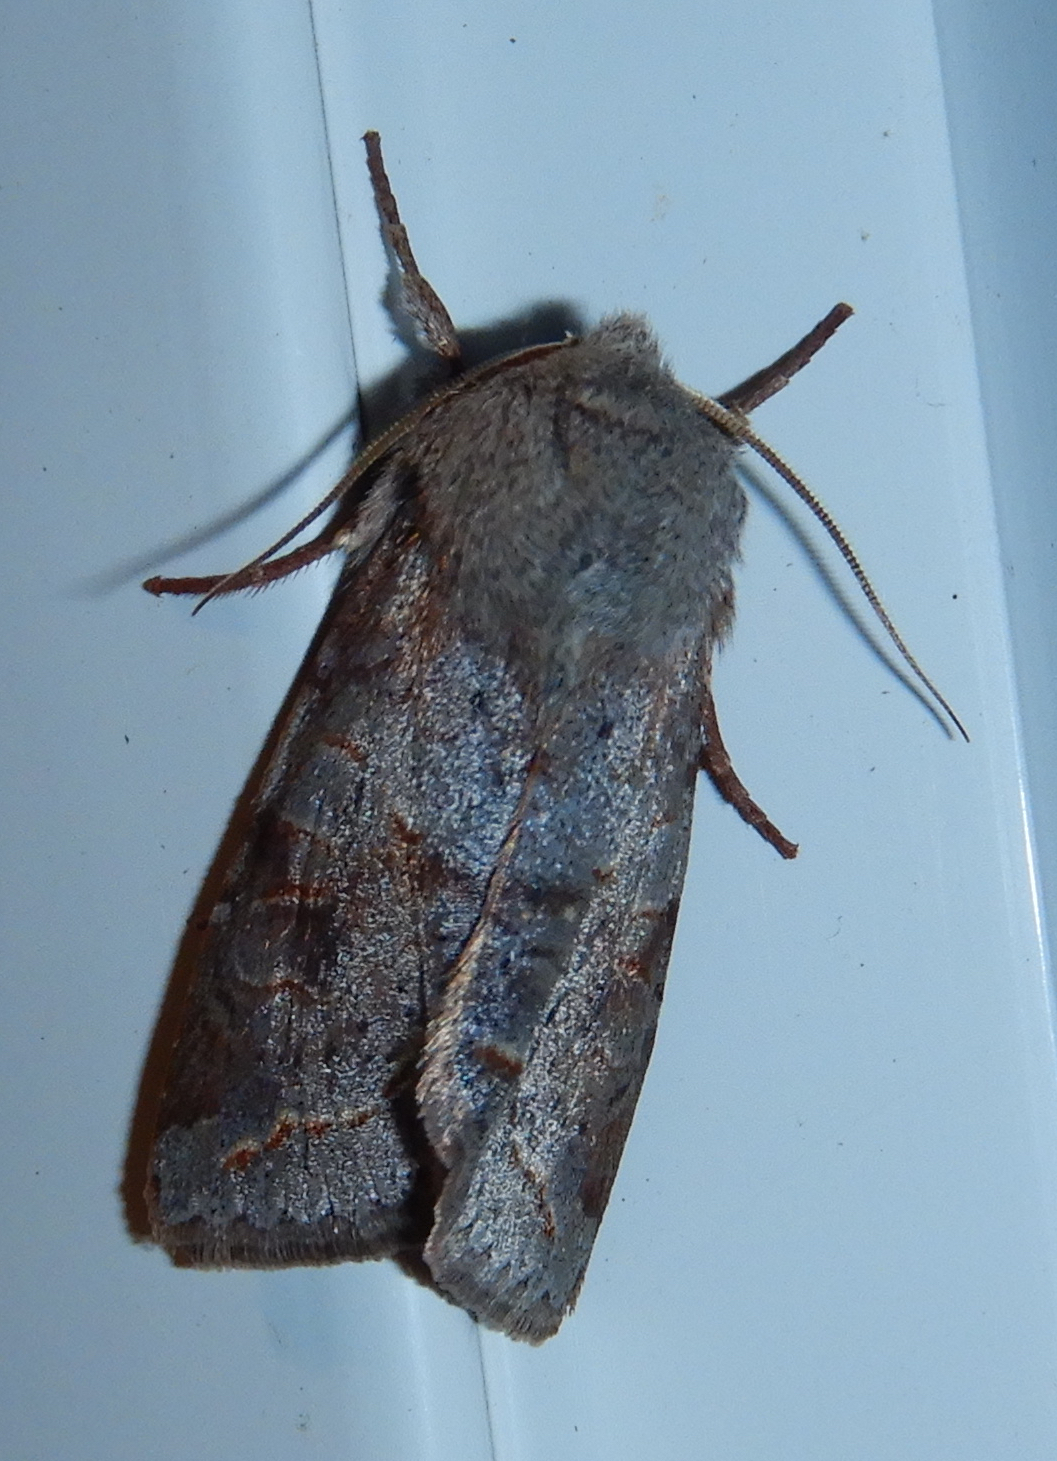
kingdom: Animalia
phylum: Arthropoda
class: Insecta
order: Lepidoptera
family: Noctuidae
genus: Orthosia
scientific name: Orthosia revicta
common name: Rusty whitesided caterpillar
